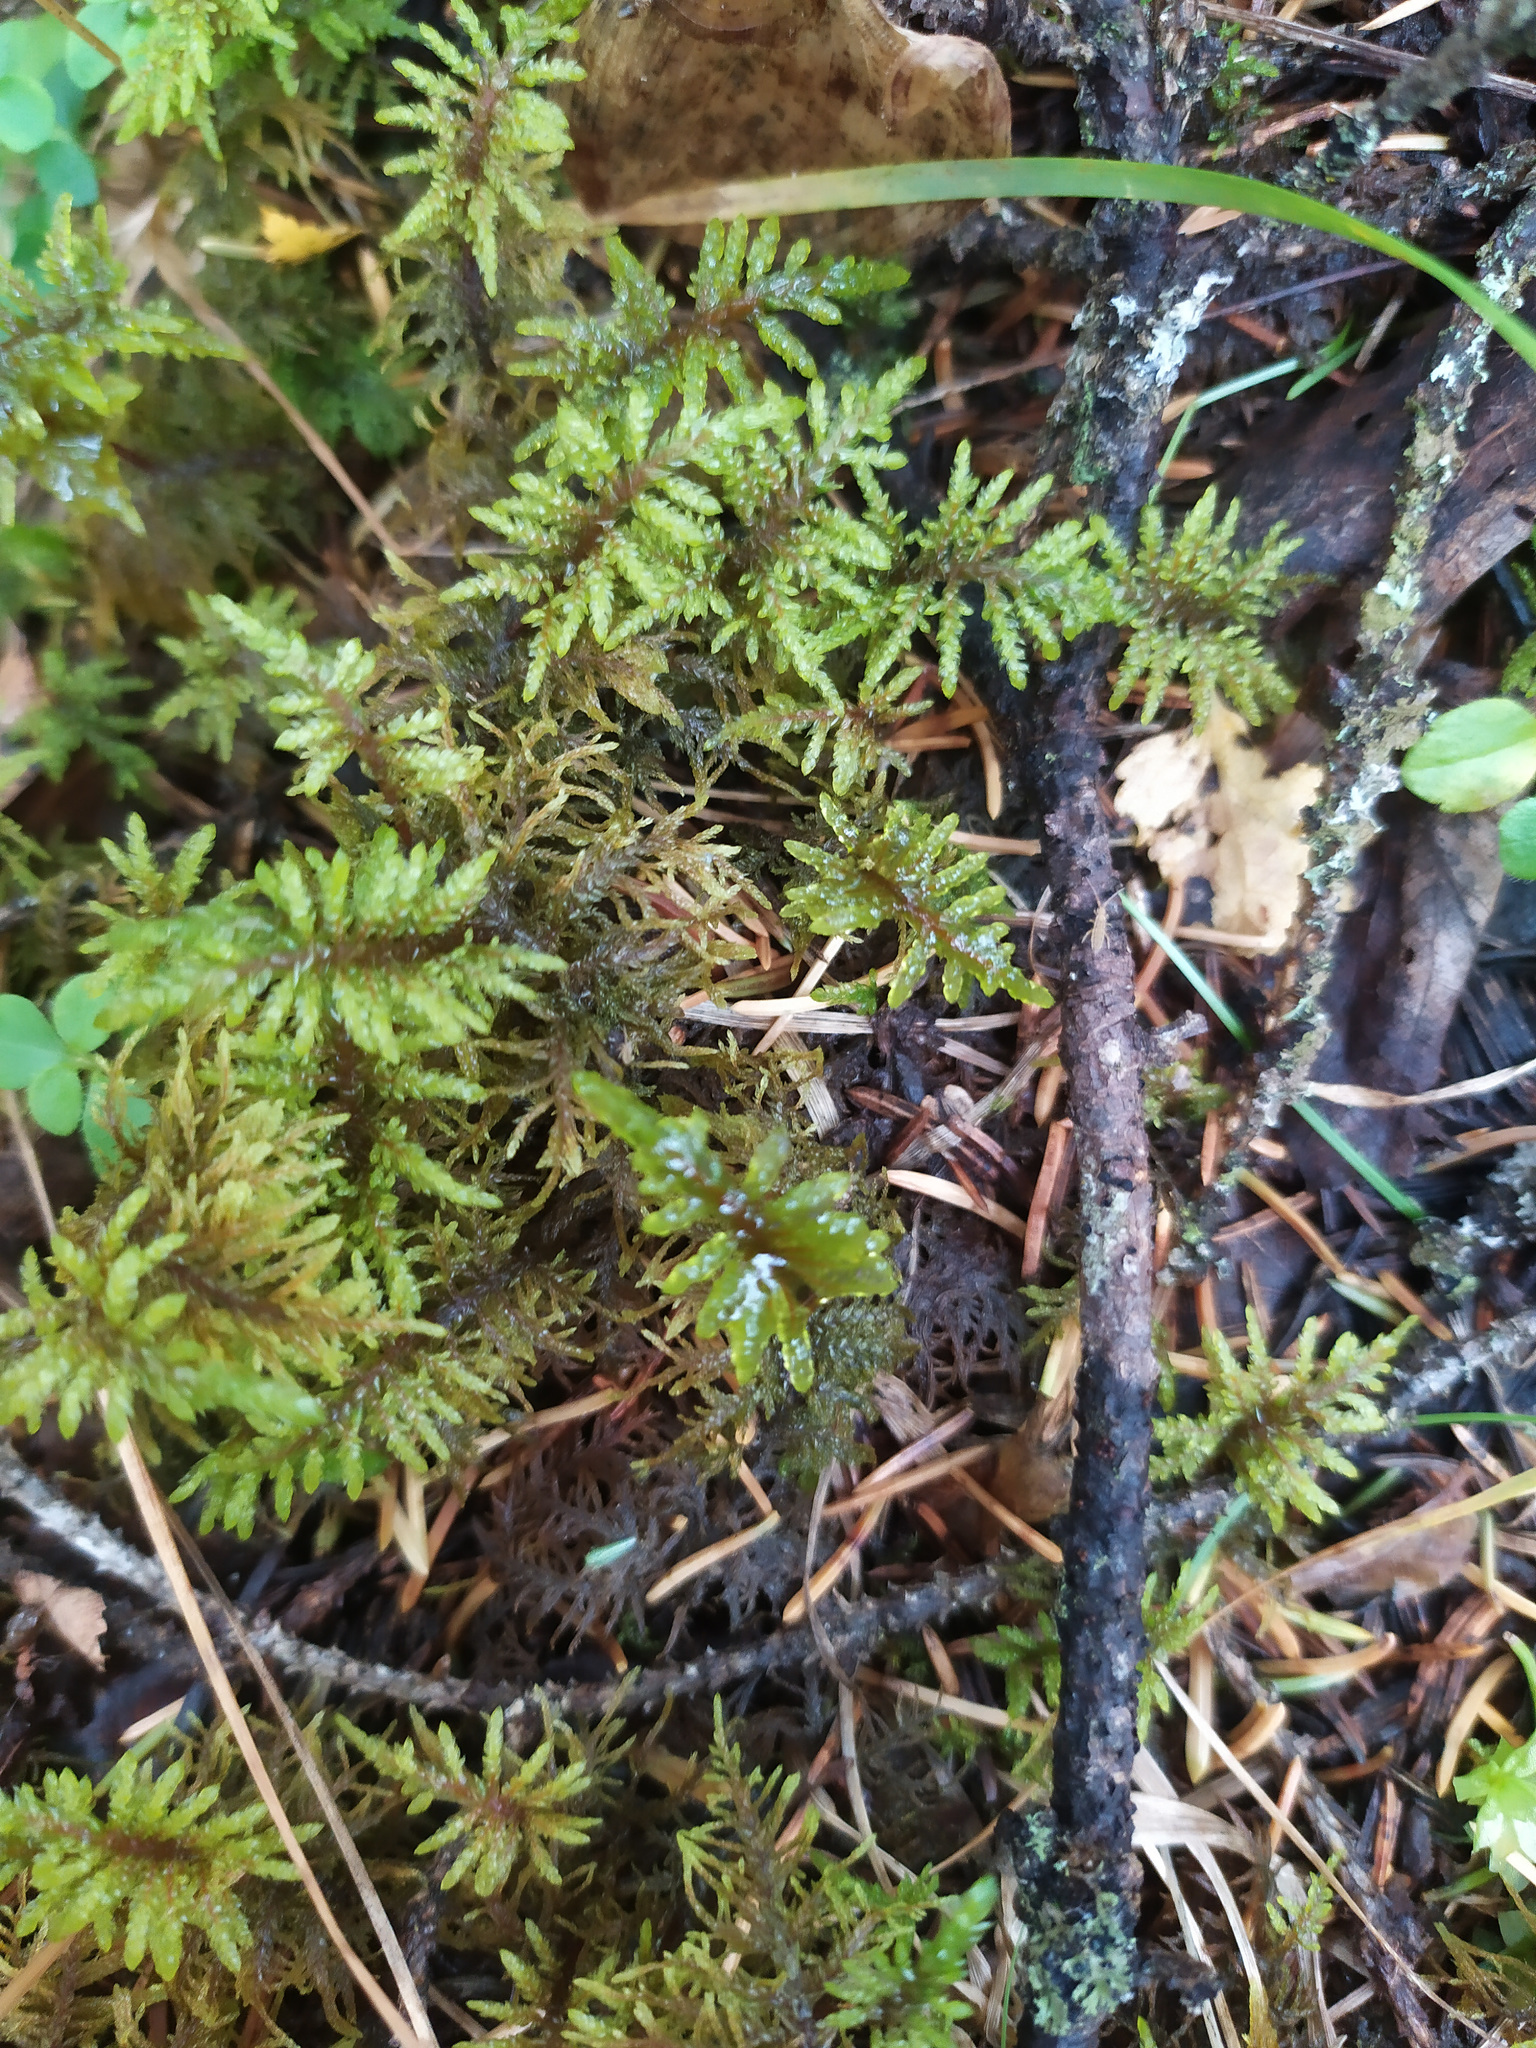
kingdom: Plantae
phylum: Bryophyta
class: Bryopsida
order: Hypnales
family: Hylocomiaceae
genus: Hylocomium
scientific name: Hylocomium splendens
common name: Stairstep moss
